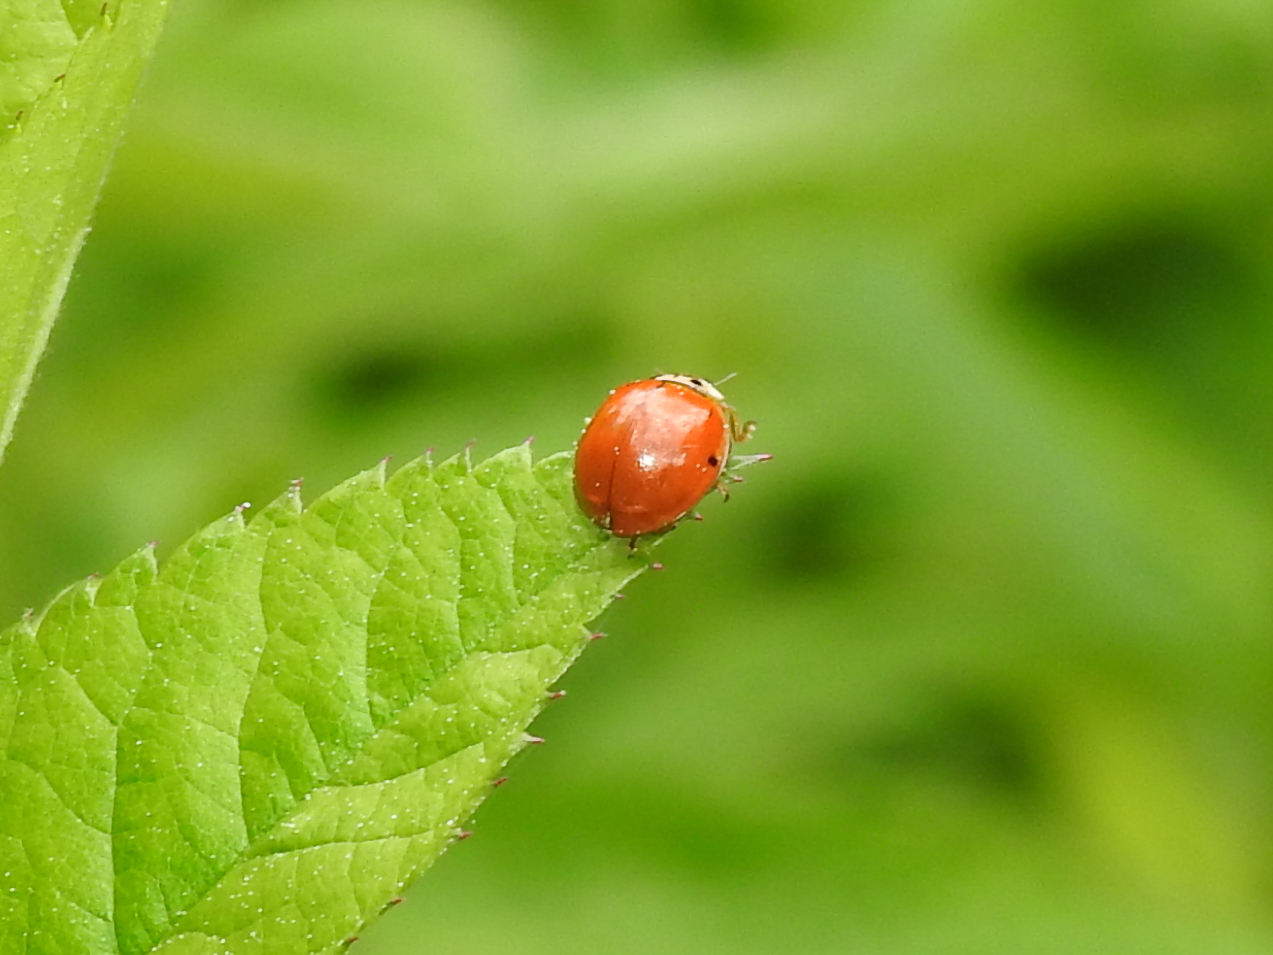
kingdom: Animalia
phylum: Arthropoda
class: Insecta
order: Coleoptera
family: Coccinellidae
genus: Harmonia
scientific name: Harmonia axyridis
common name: Harlequin ladybird
